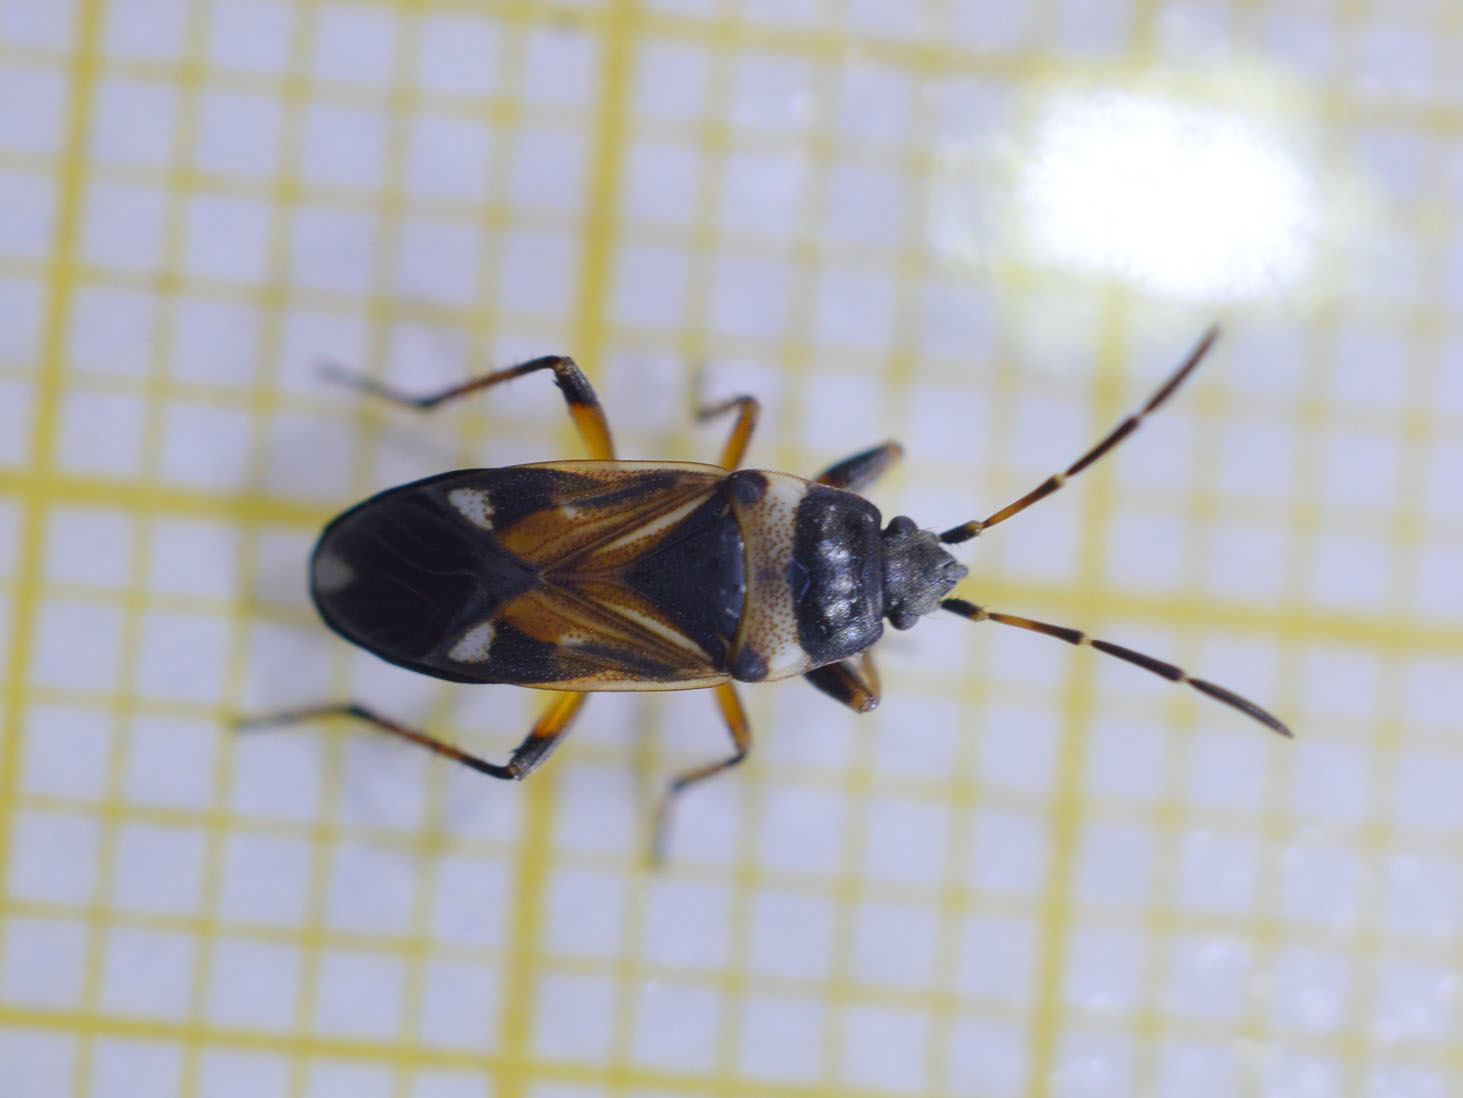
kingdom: Animalia
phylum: Arthropoda
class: Insecta
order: Hemiptera
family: Rhyparochromidae
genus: Raglius
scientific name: Raglius alboacuminatus
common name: Dirt-colored seed bug
